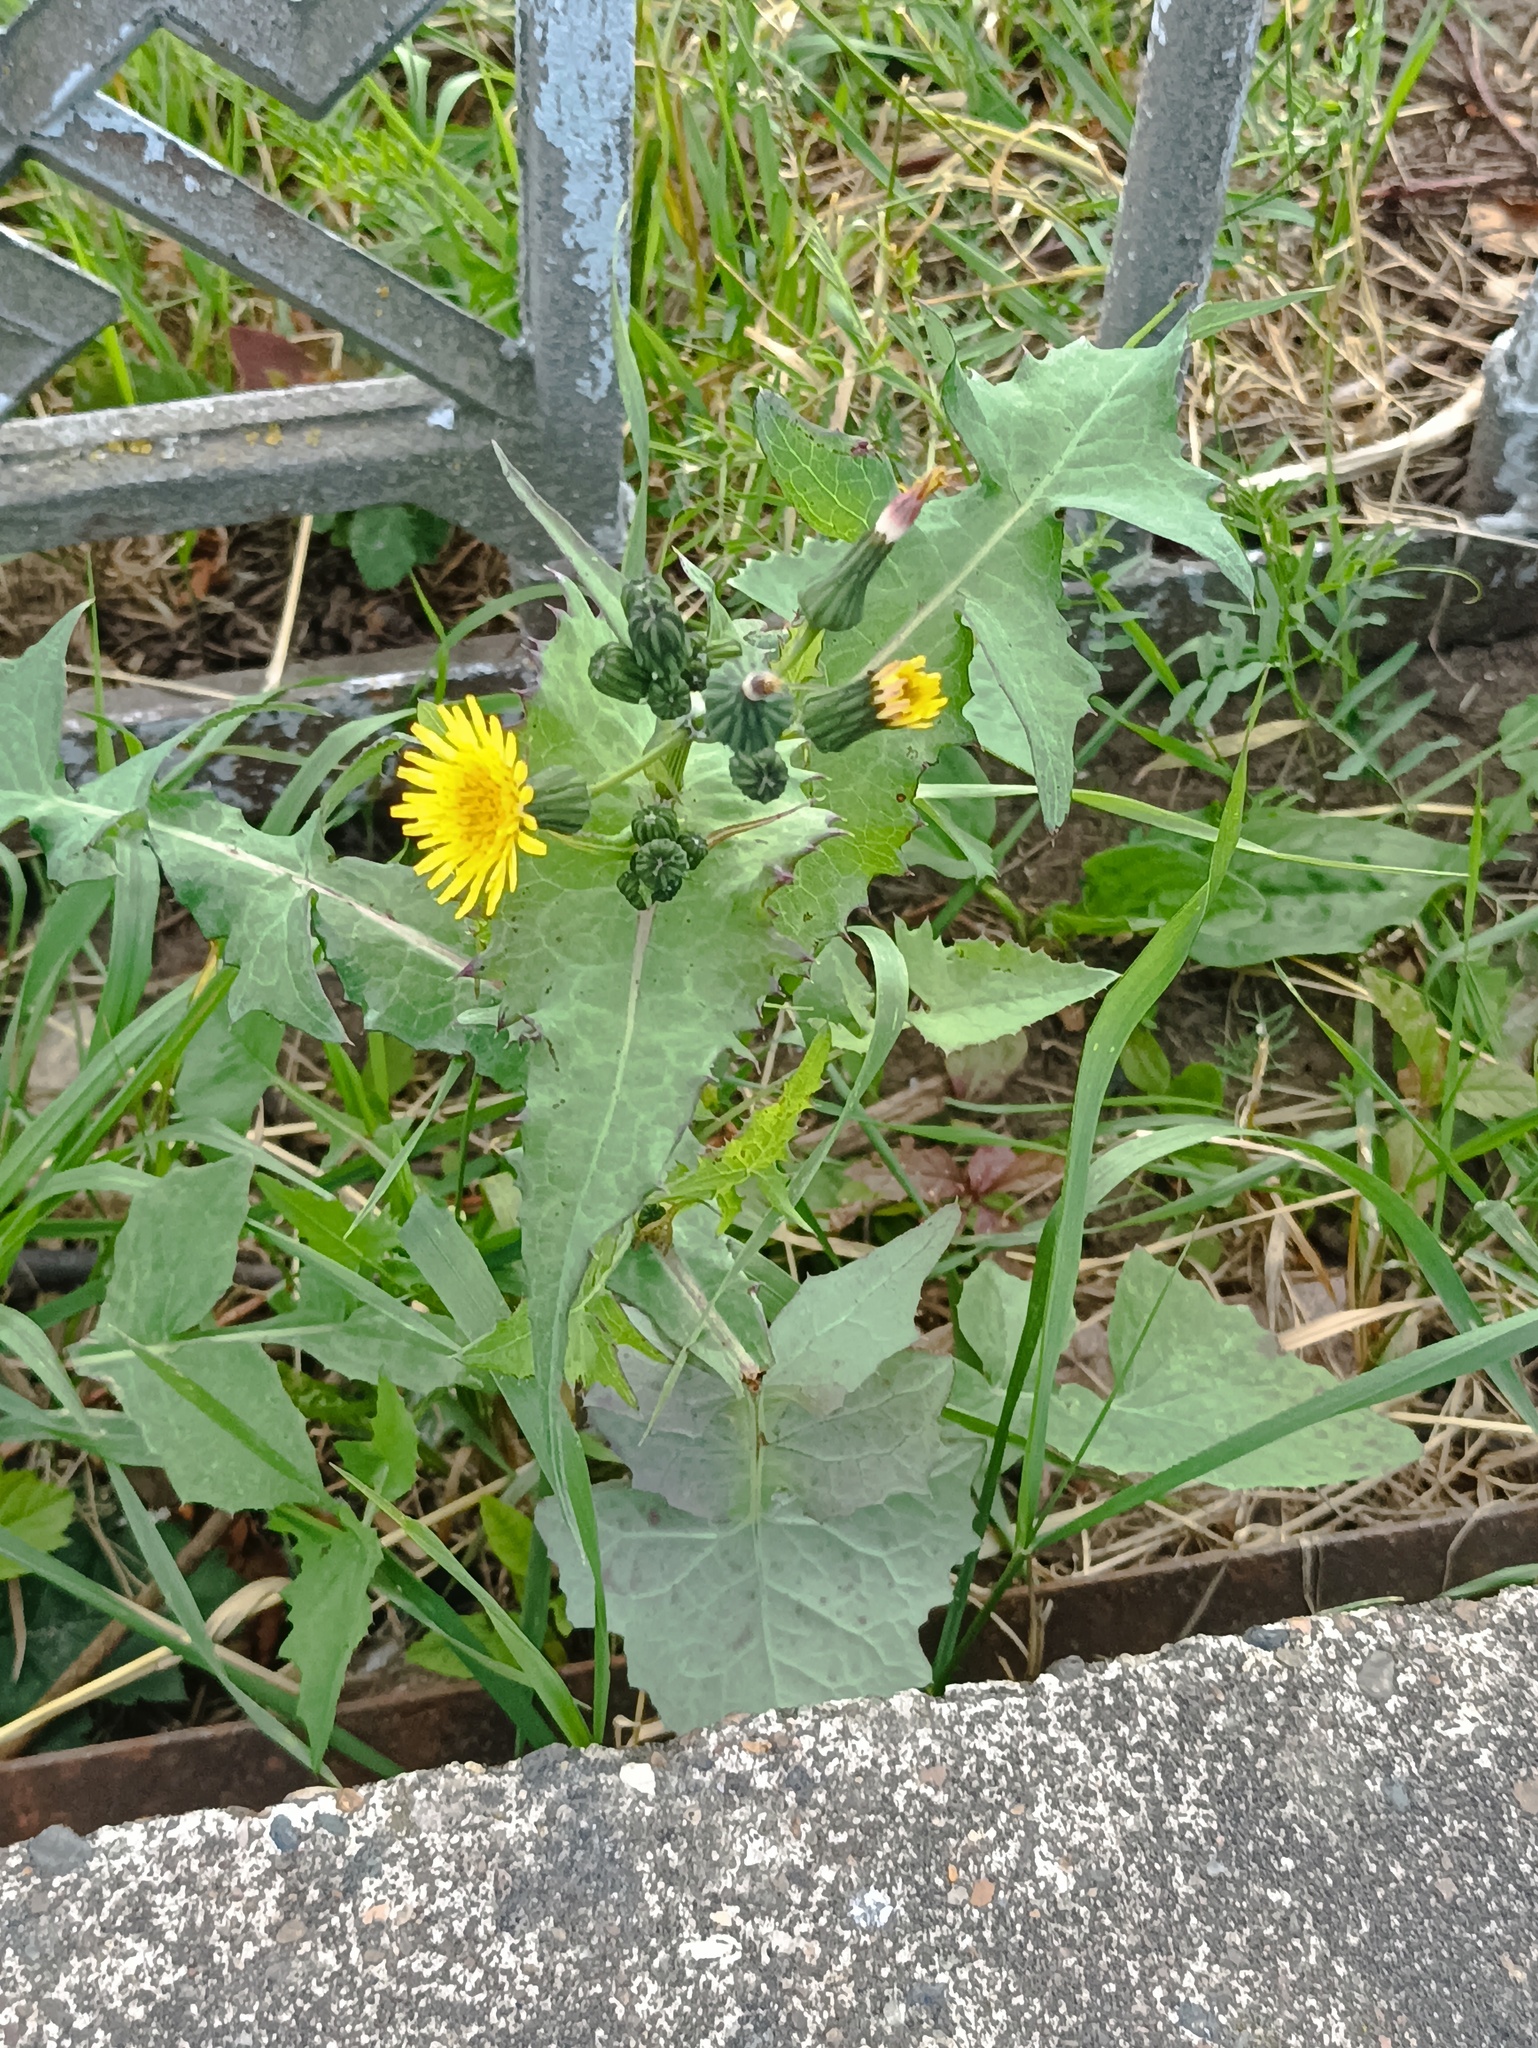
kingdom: Plantae
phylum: Tracheophyta
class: Magnoliopsida
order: Asterales
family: Asteraceae
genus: Sonchus
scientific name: Sonchus oleraceus
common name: Common sowthistle
